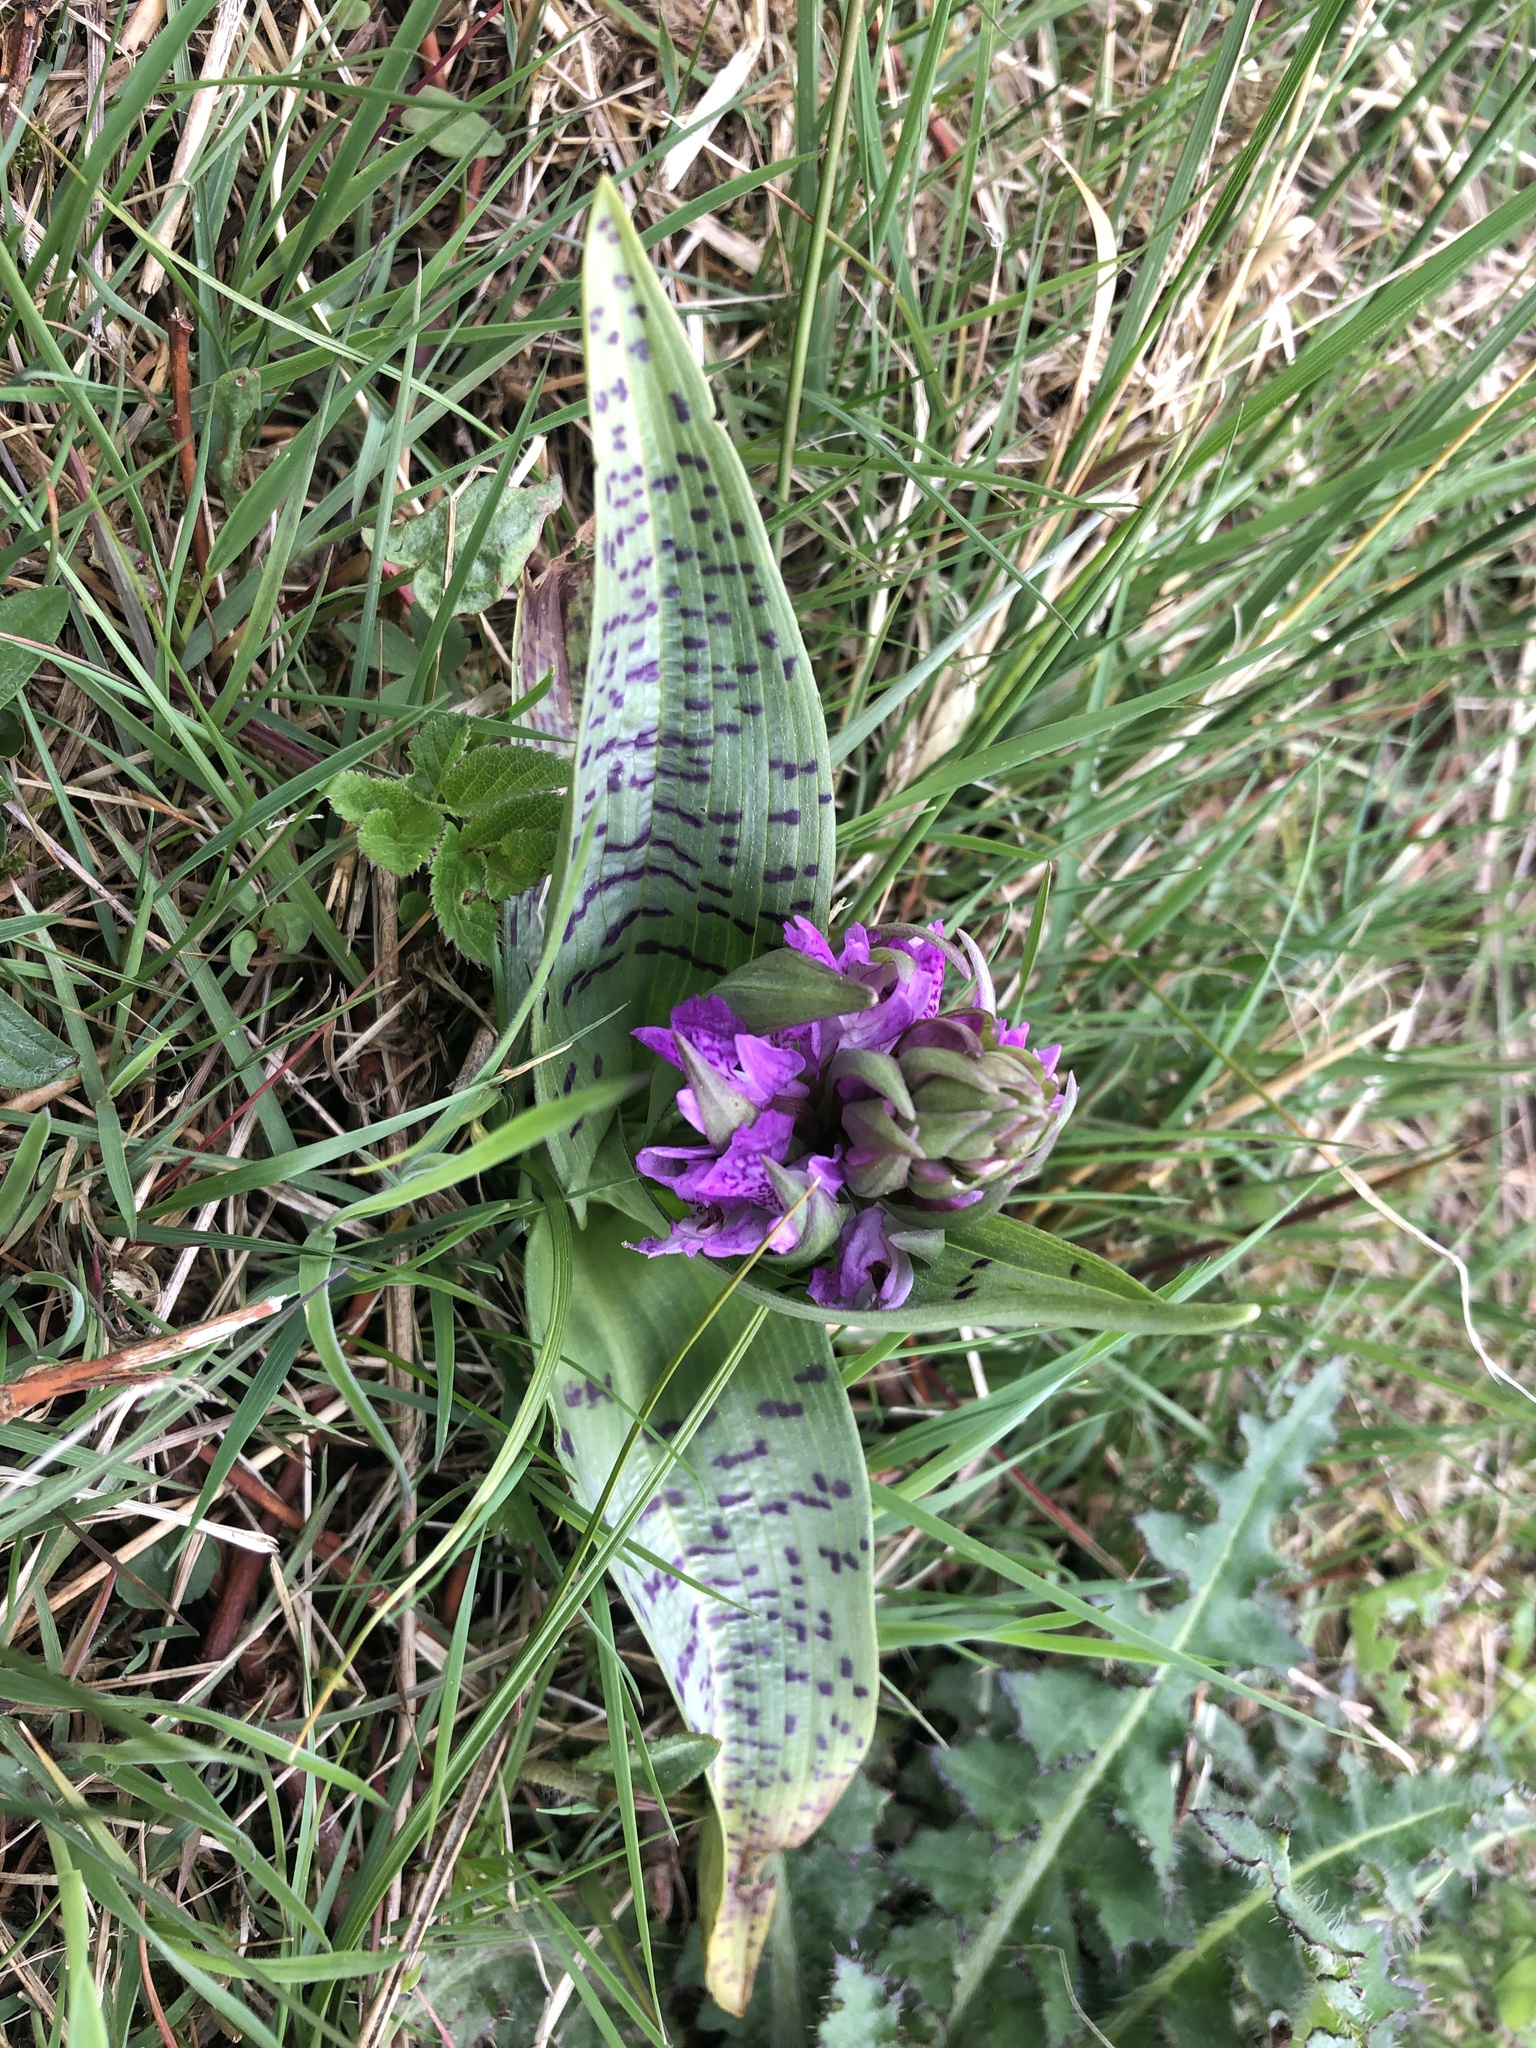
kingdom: Plantae
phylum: Tracheophyta
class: Liliopsida
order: Asparagales
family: Orchidaceae
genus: Dactylorhiza
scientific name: Dactylorhiza majalis
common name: Marsh orchid
